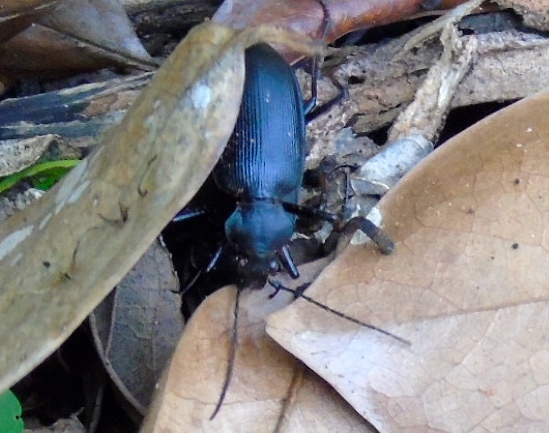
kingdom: Animalia
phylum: Arthropoda
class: Insecta
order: Coleoptera
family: Carabidae
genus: Calosoma
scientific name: Calosoma
